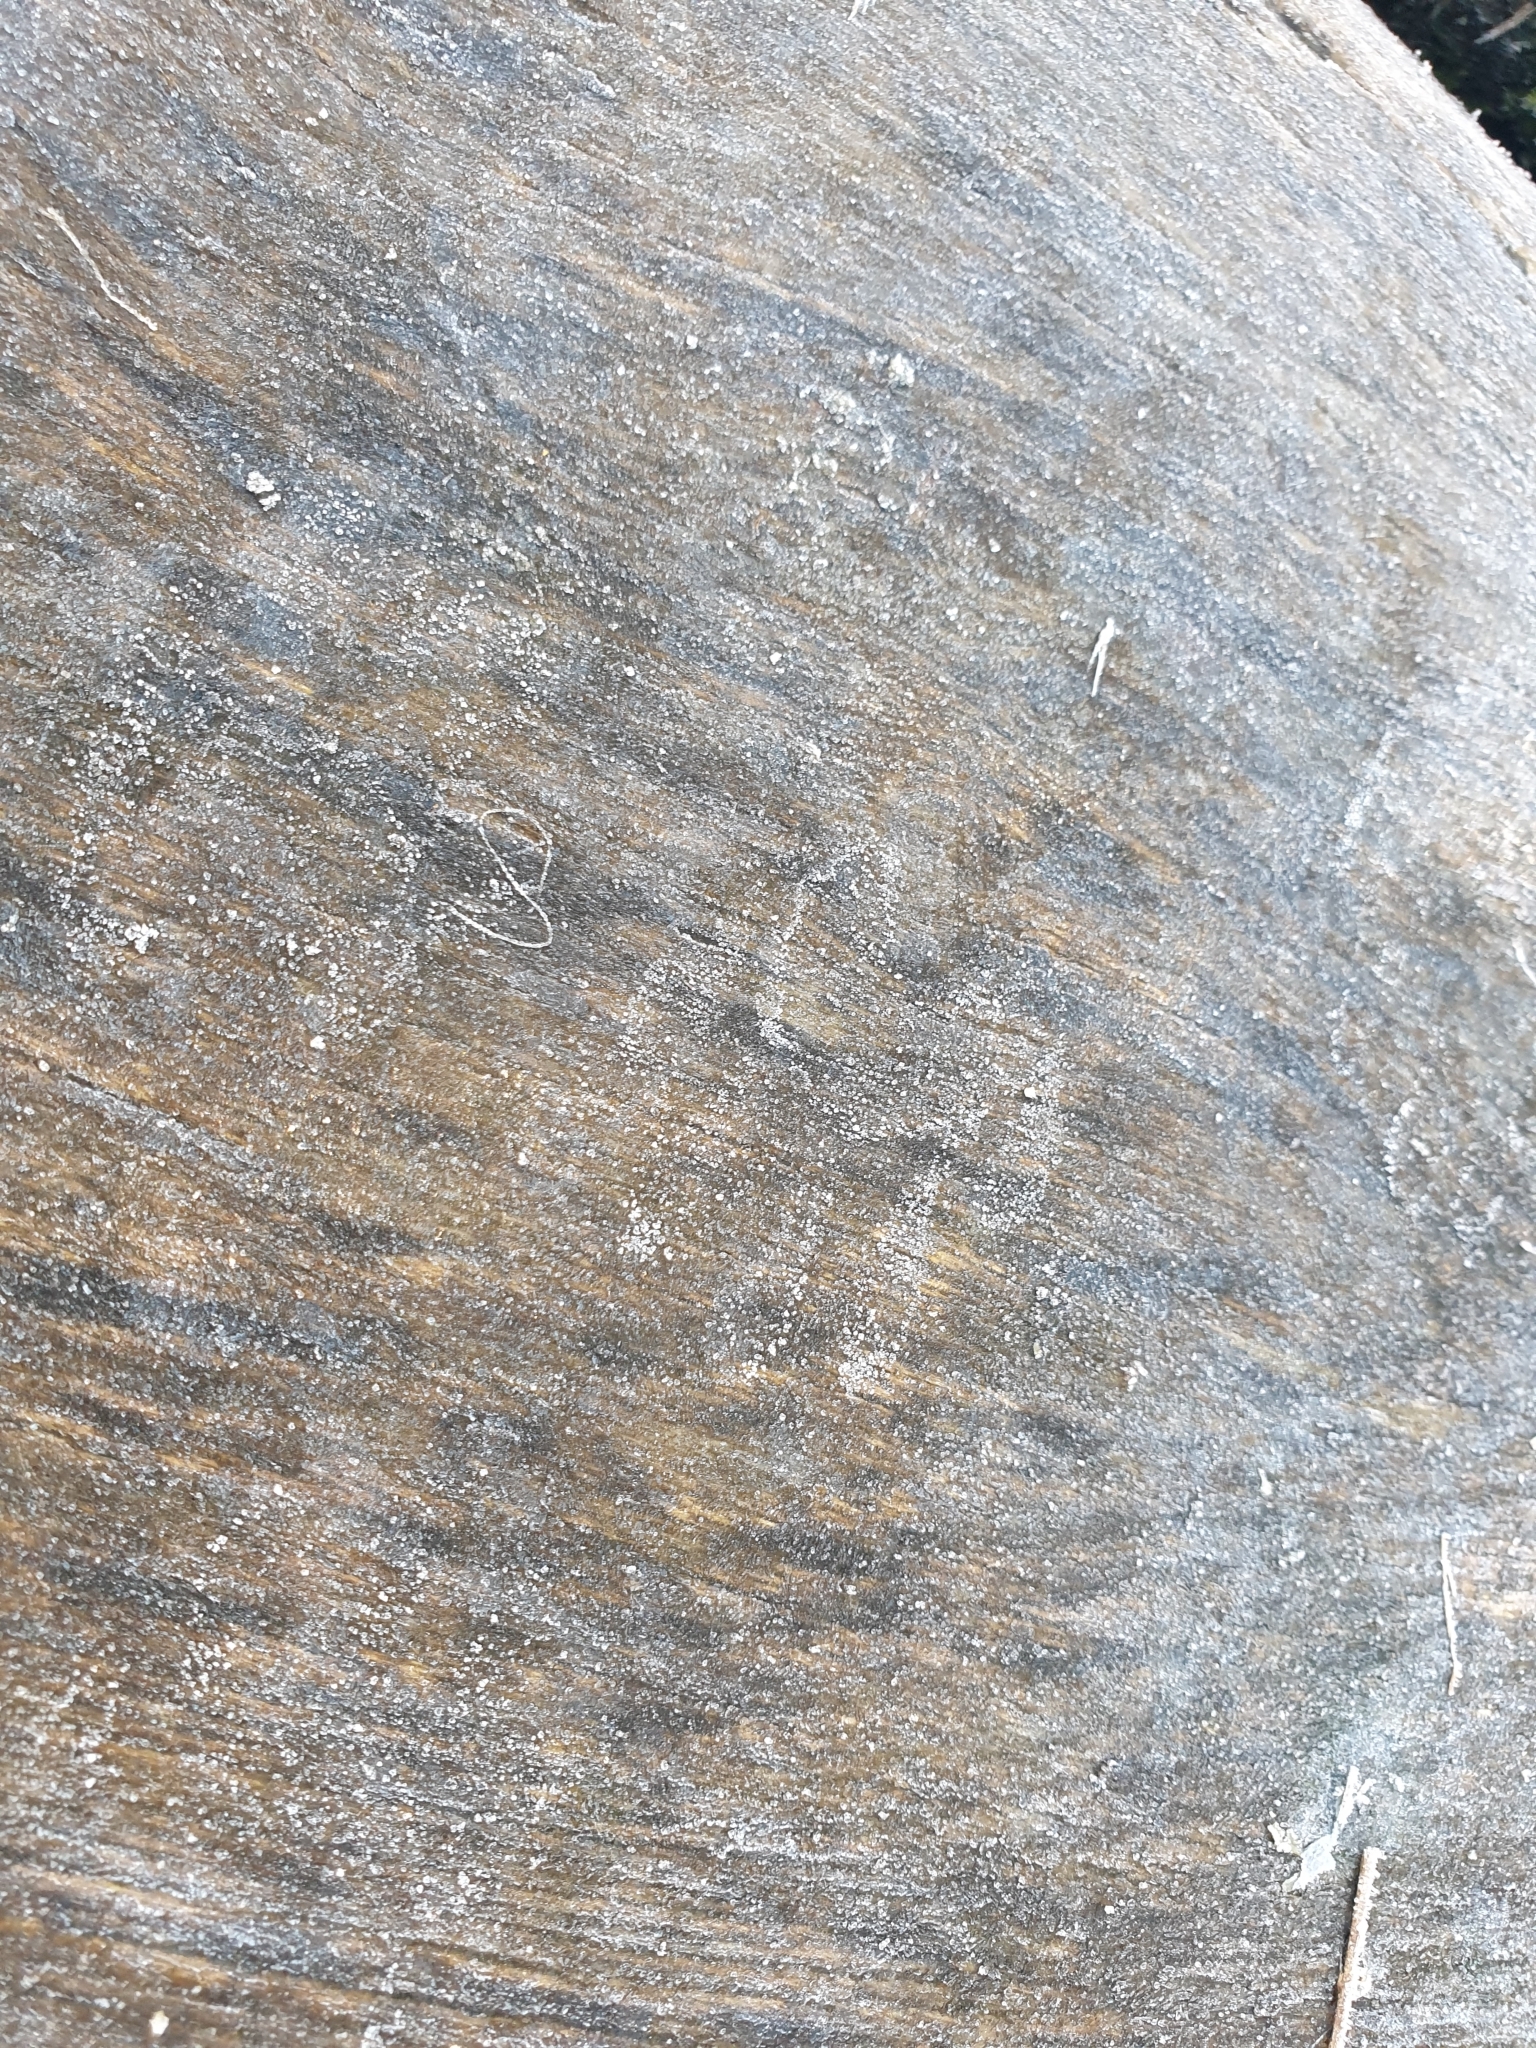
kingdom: Animalia
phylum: Chordata
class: Mammalia
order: Carnivora
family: Procyonidae
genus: Procyon
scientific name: Procyon lotor
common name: Raccoon
